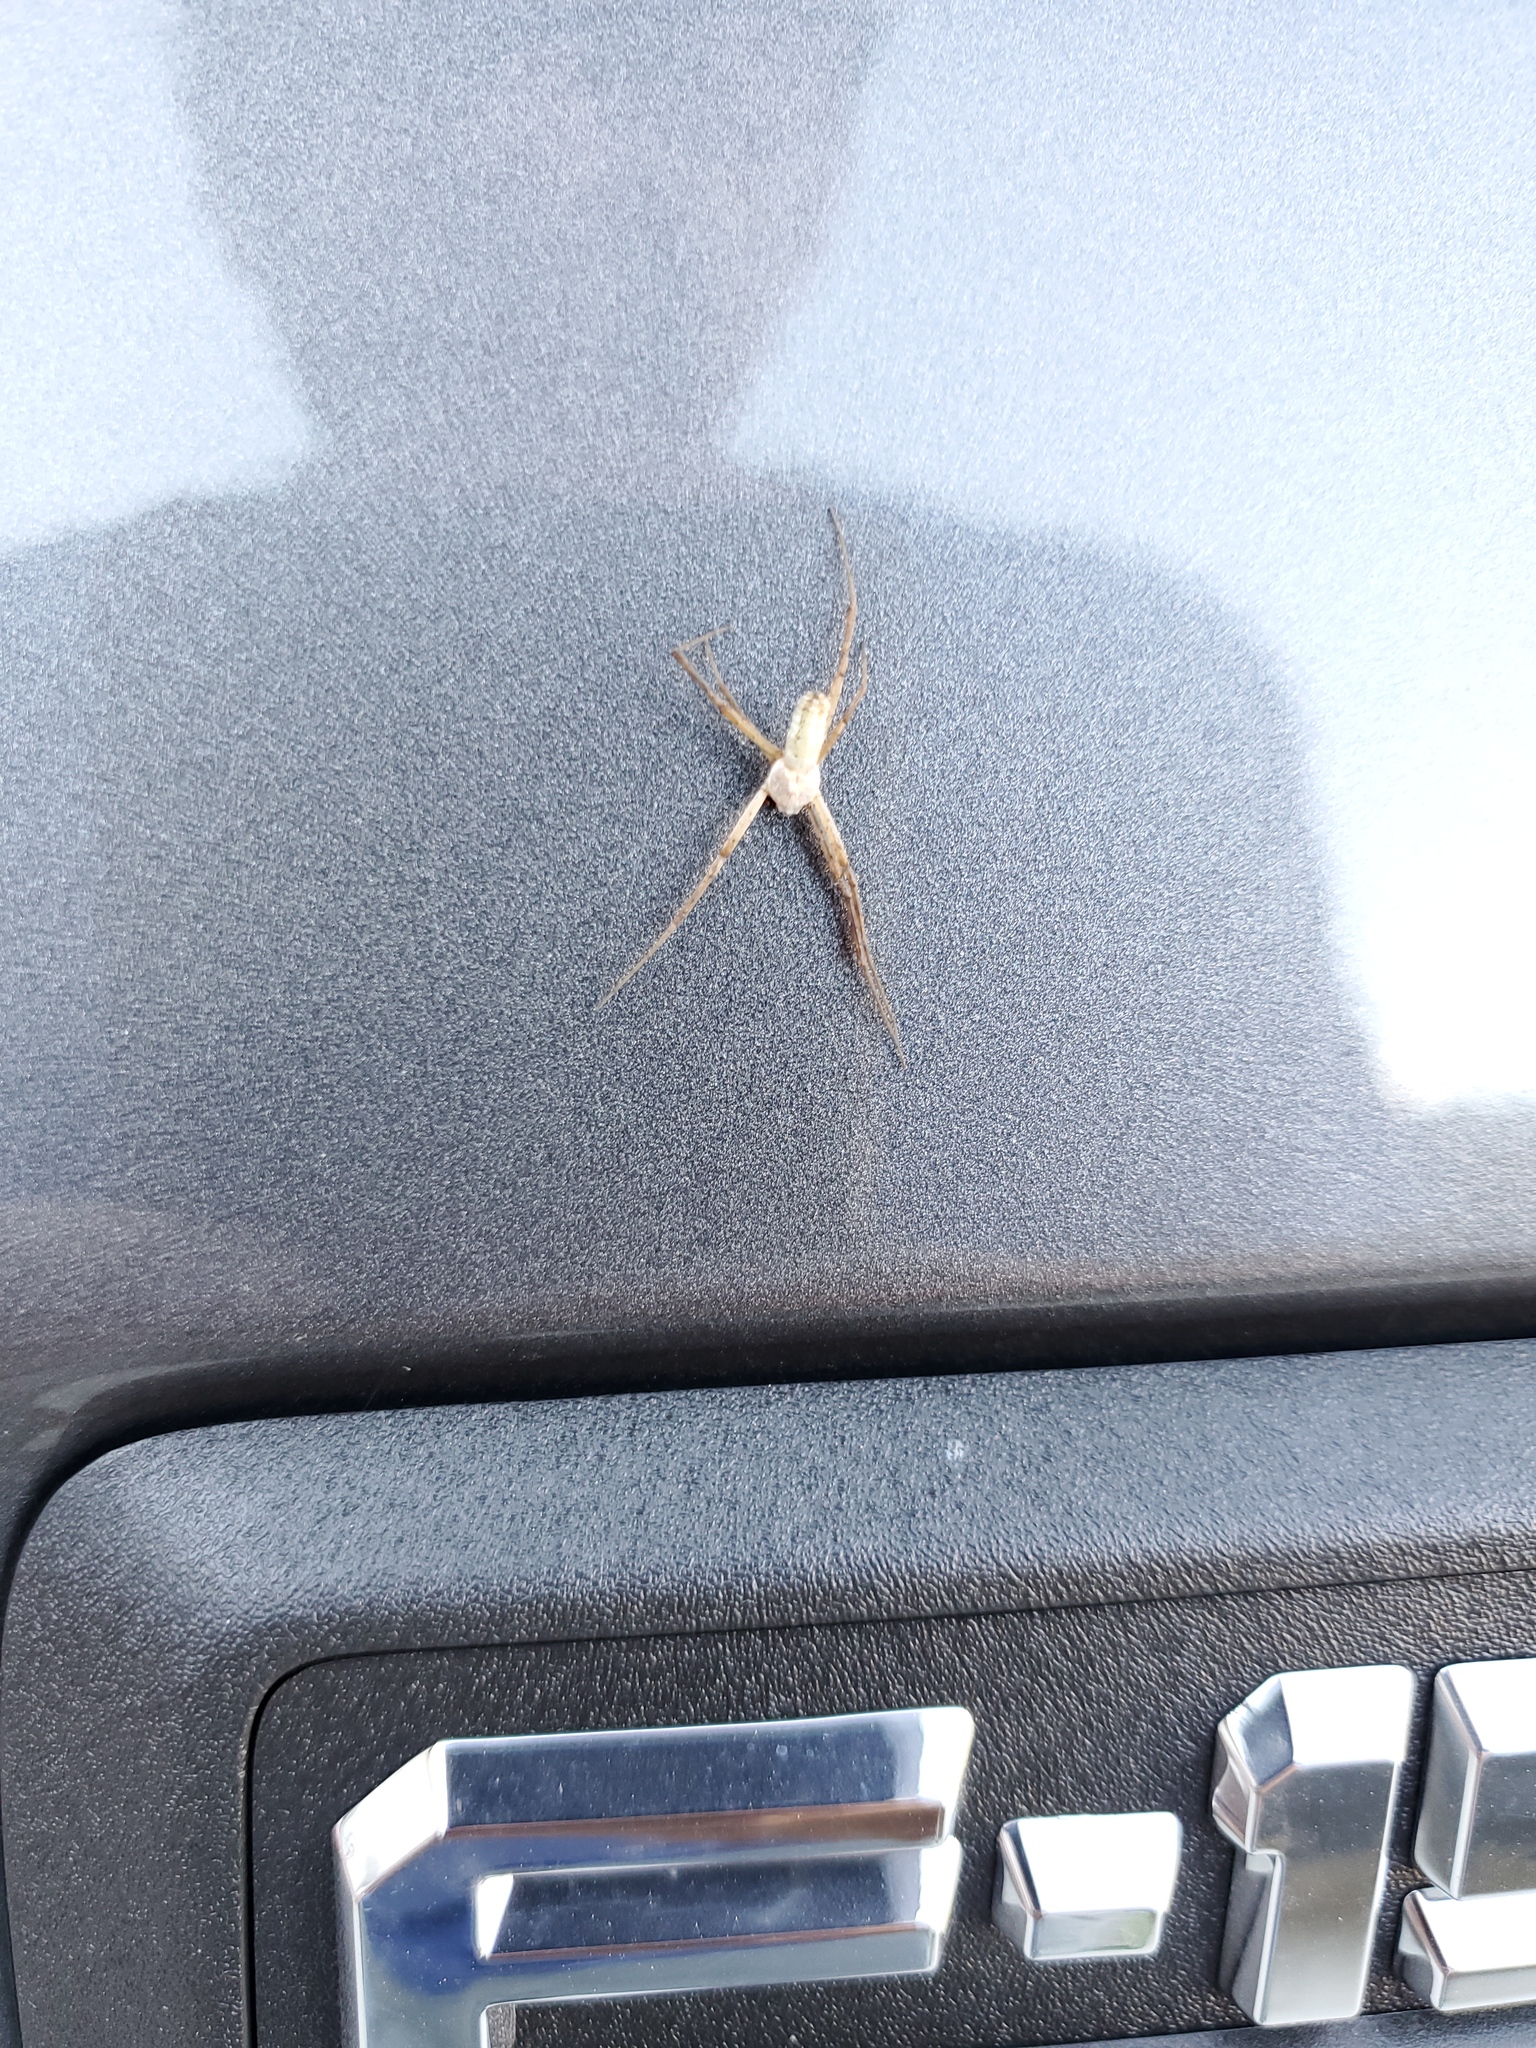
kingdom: Animalia
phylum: Arthropoda
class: Arachnida
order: Araneae
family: Araneidae
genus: Argiope
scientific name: Argiope trifasciata
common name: Banded garden spider
